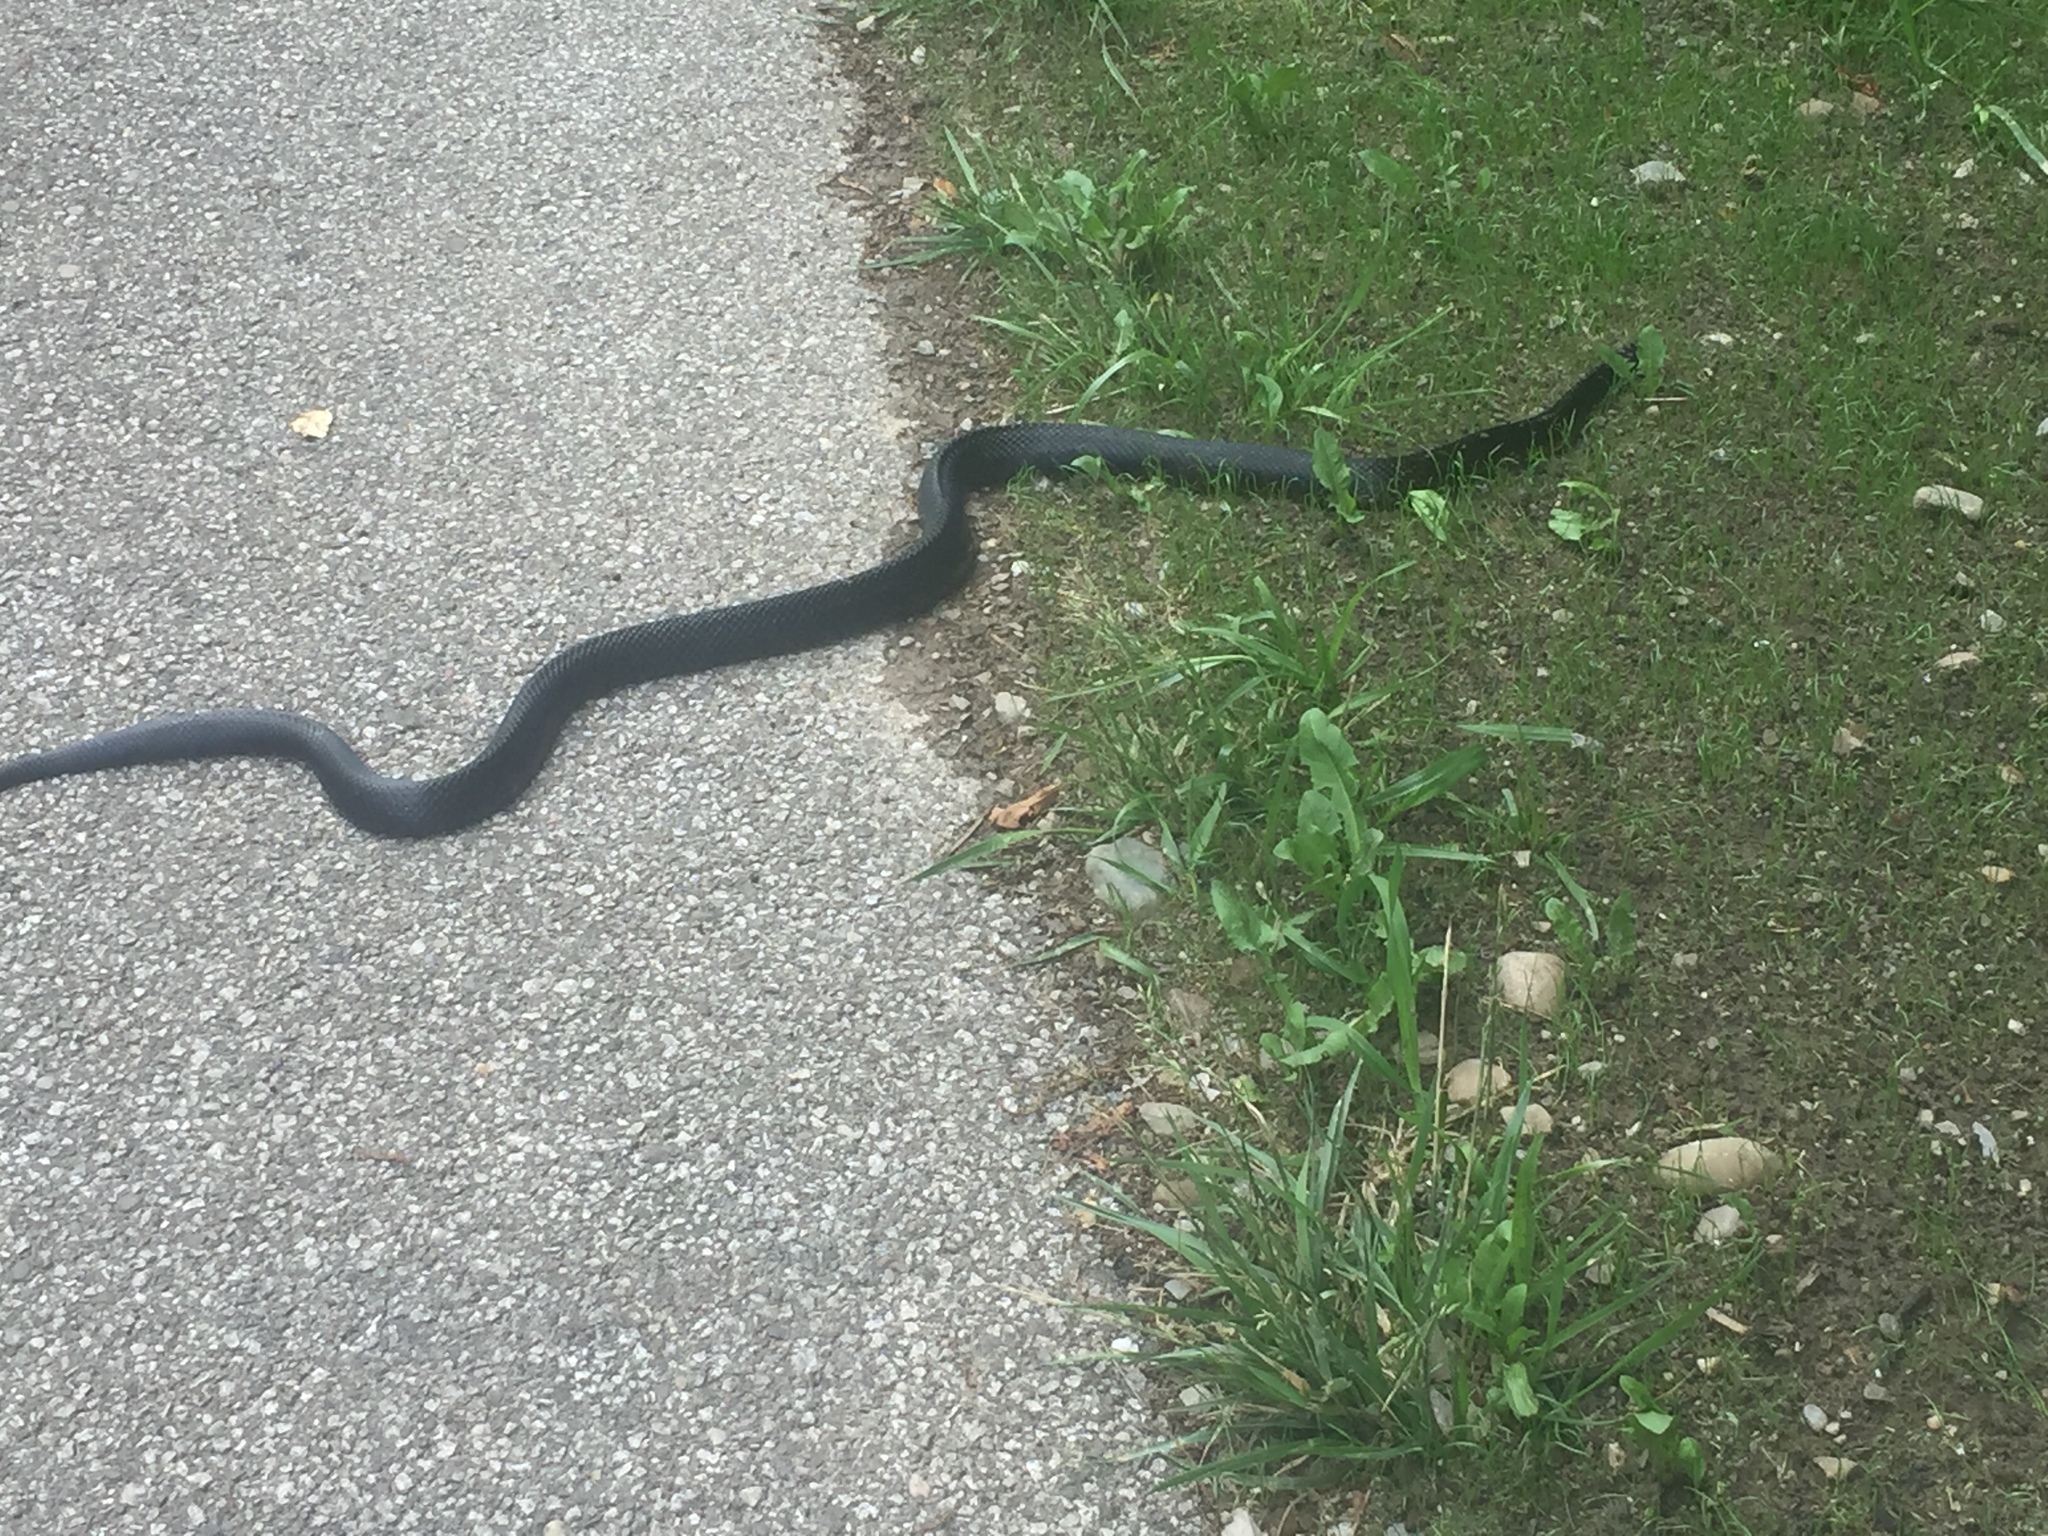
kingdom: Animalia
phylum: Chordata
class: Squamata
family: Colubridae
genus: Pantherophis
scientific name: Pantherophis spiloides
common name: Gray rat snake
